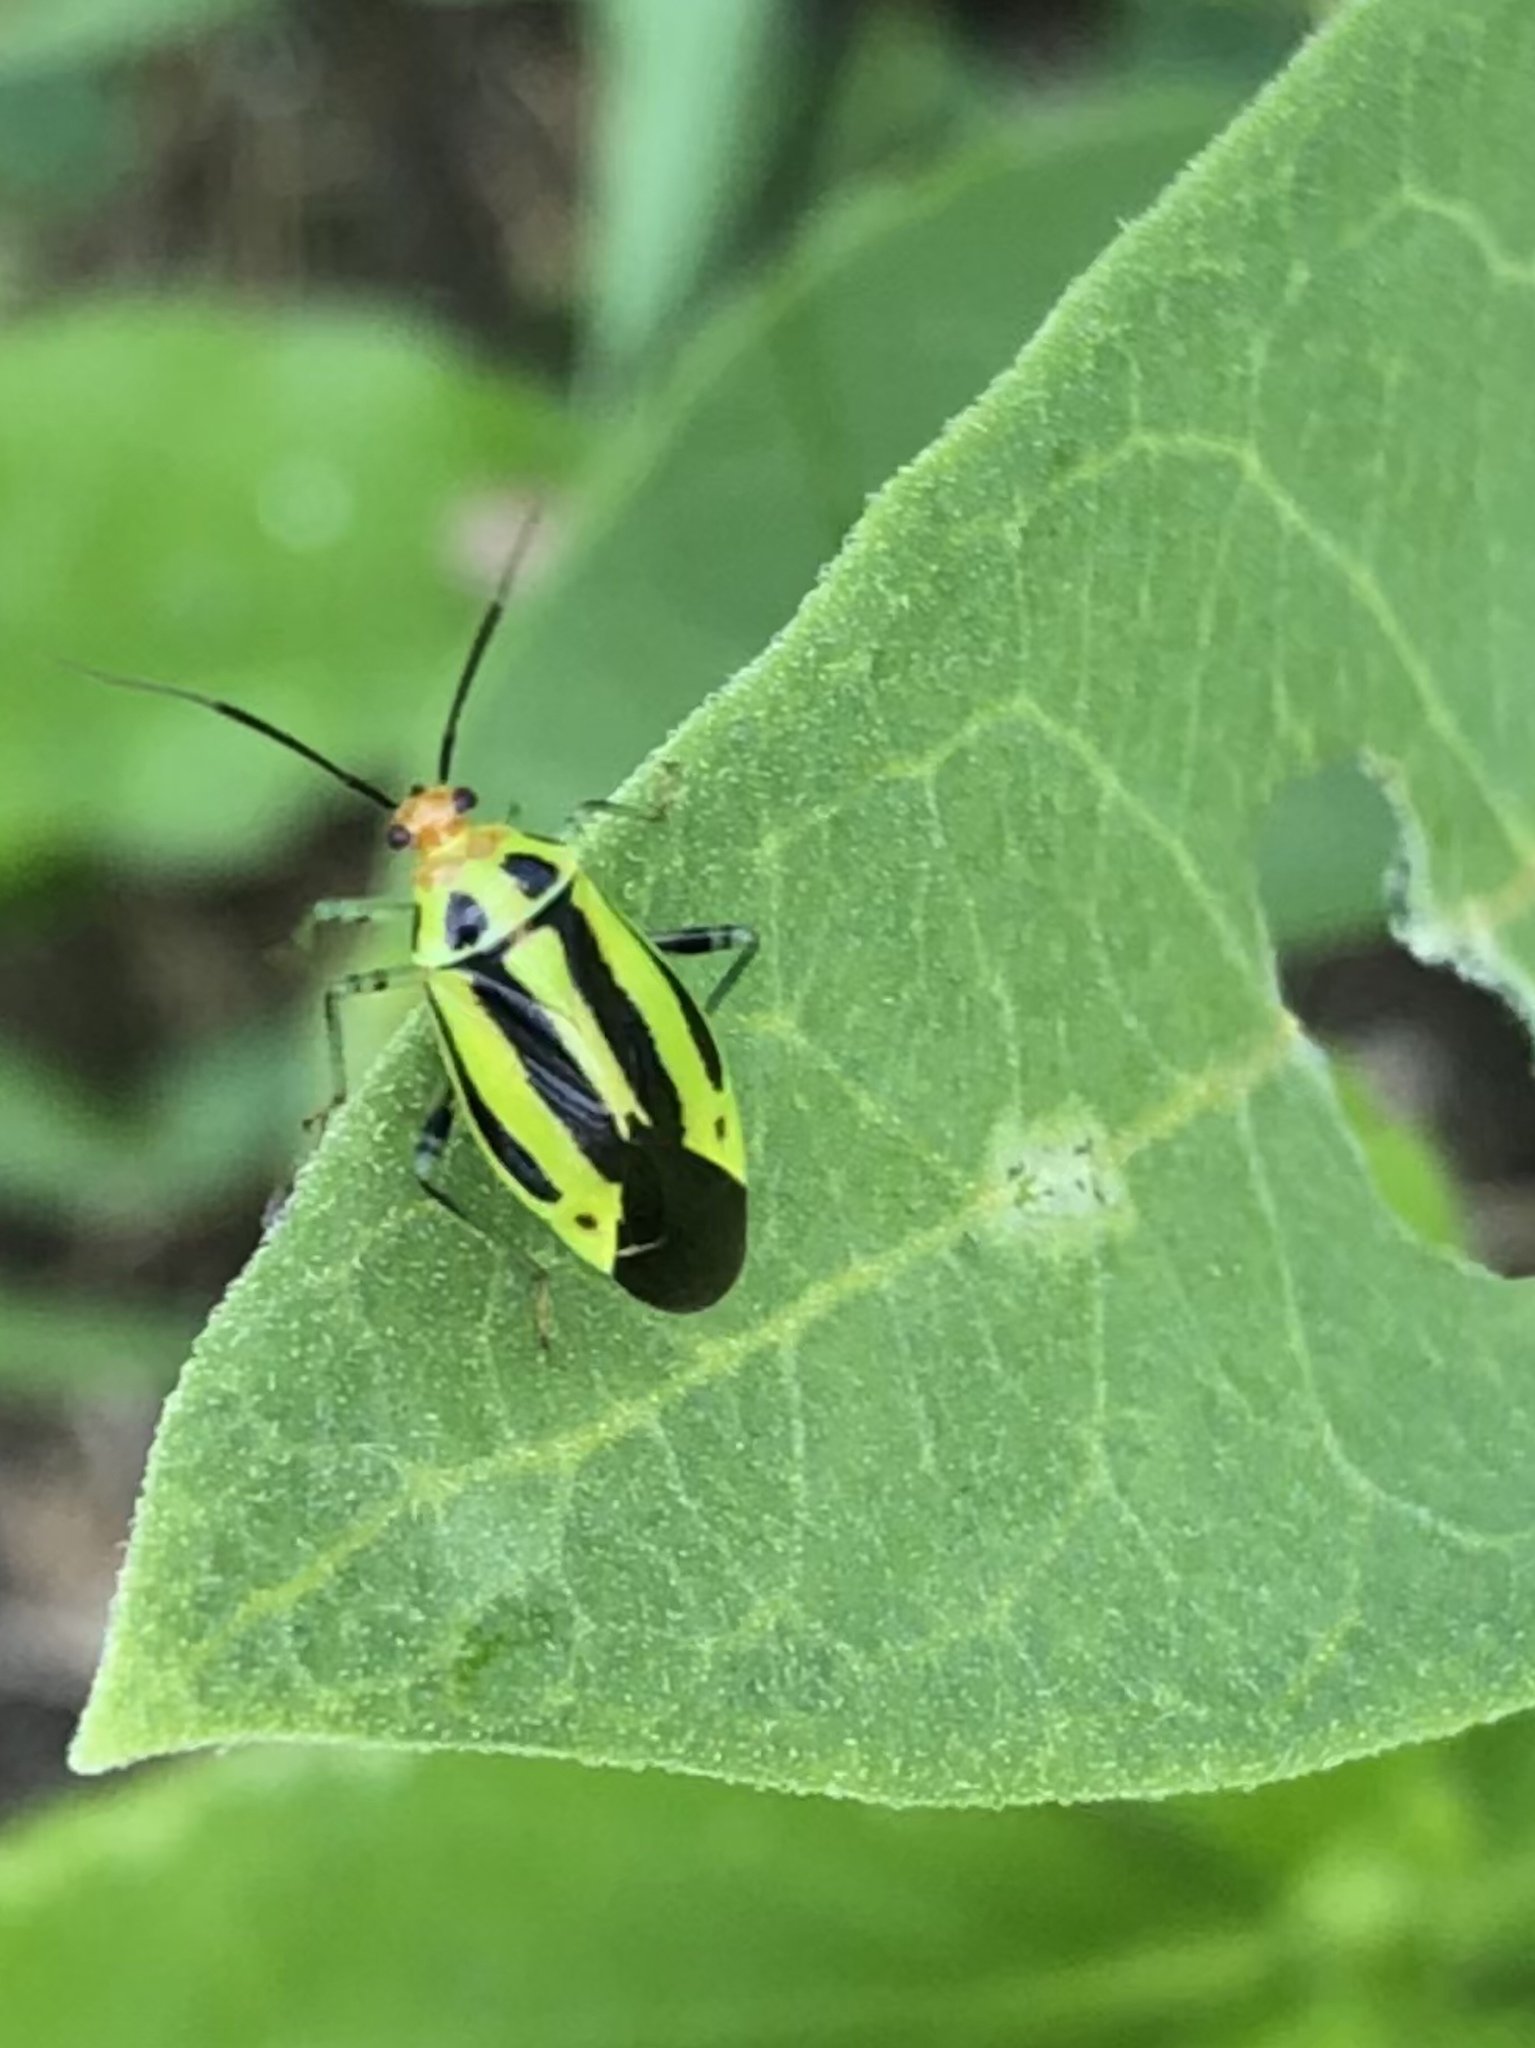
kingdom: Animalia
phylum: Arthropoda
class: Insecta
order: Hemiptera
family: Miridae
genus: Poecilocapsus
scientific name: Poecilocapsus lineatus
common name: Four-lined plant bug
